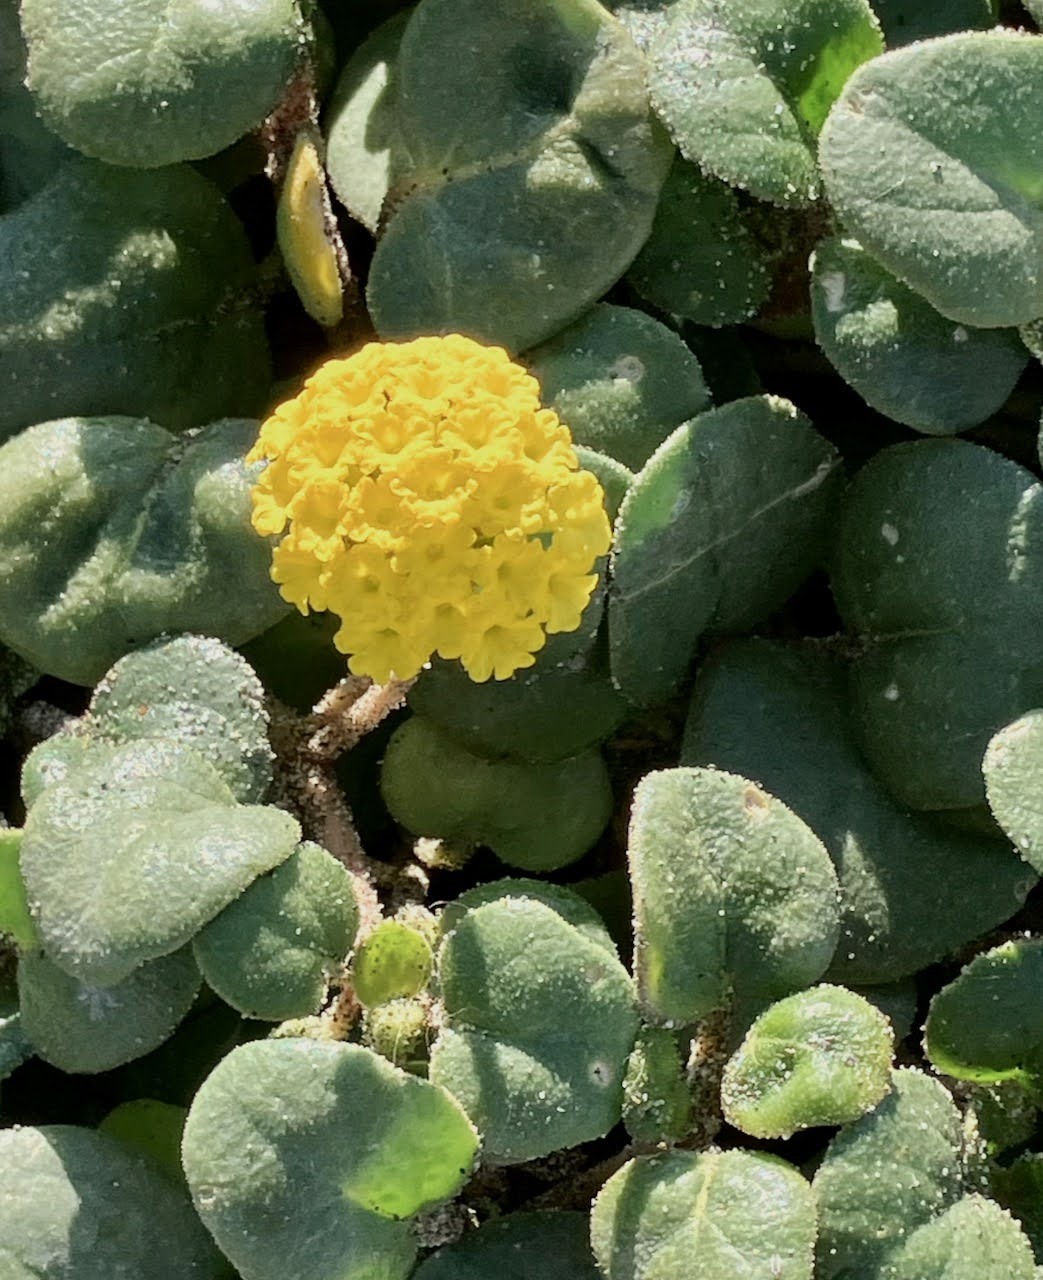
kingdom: Plantae
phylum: Tracheophyta
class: Magnoliopsida
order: Caryophyllales
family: Nyctaginaceae
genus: Abronia
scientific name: Abronia latifolia
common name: Yellow sand-verbena
